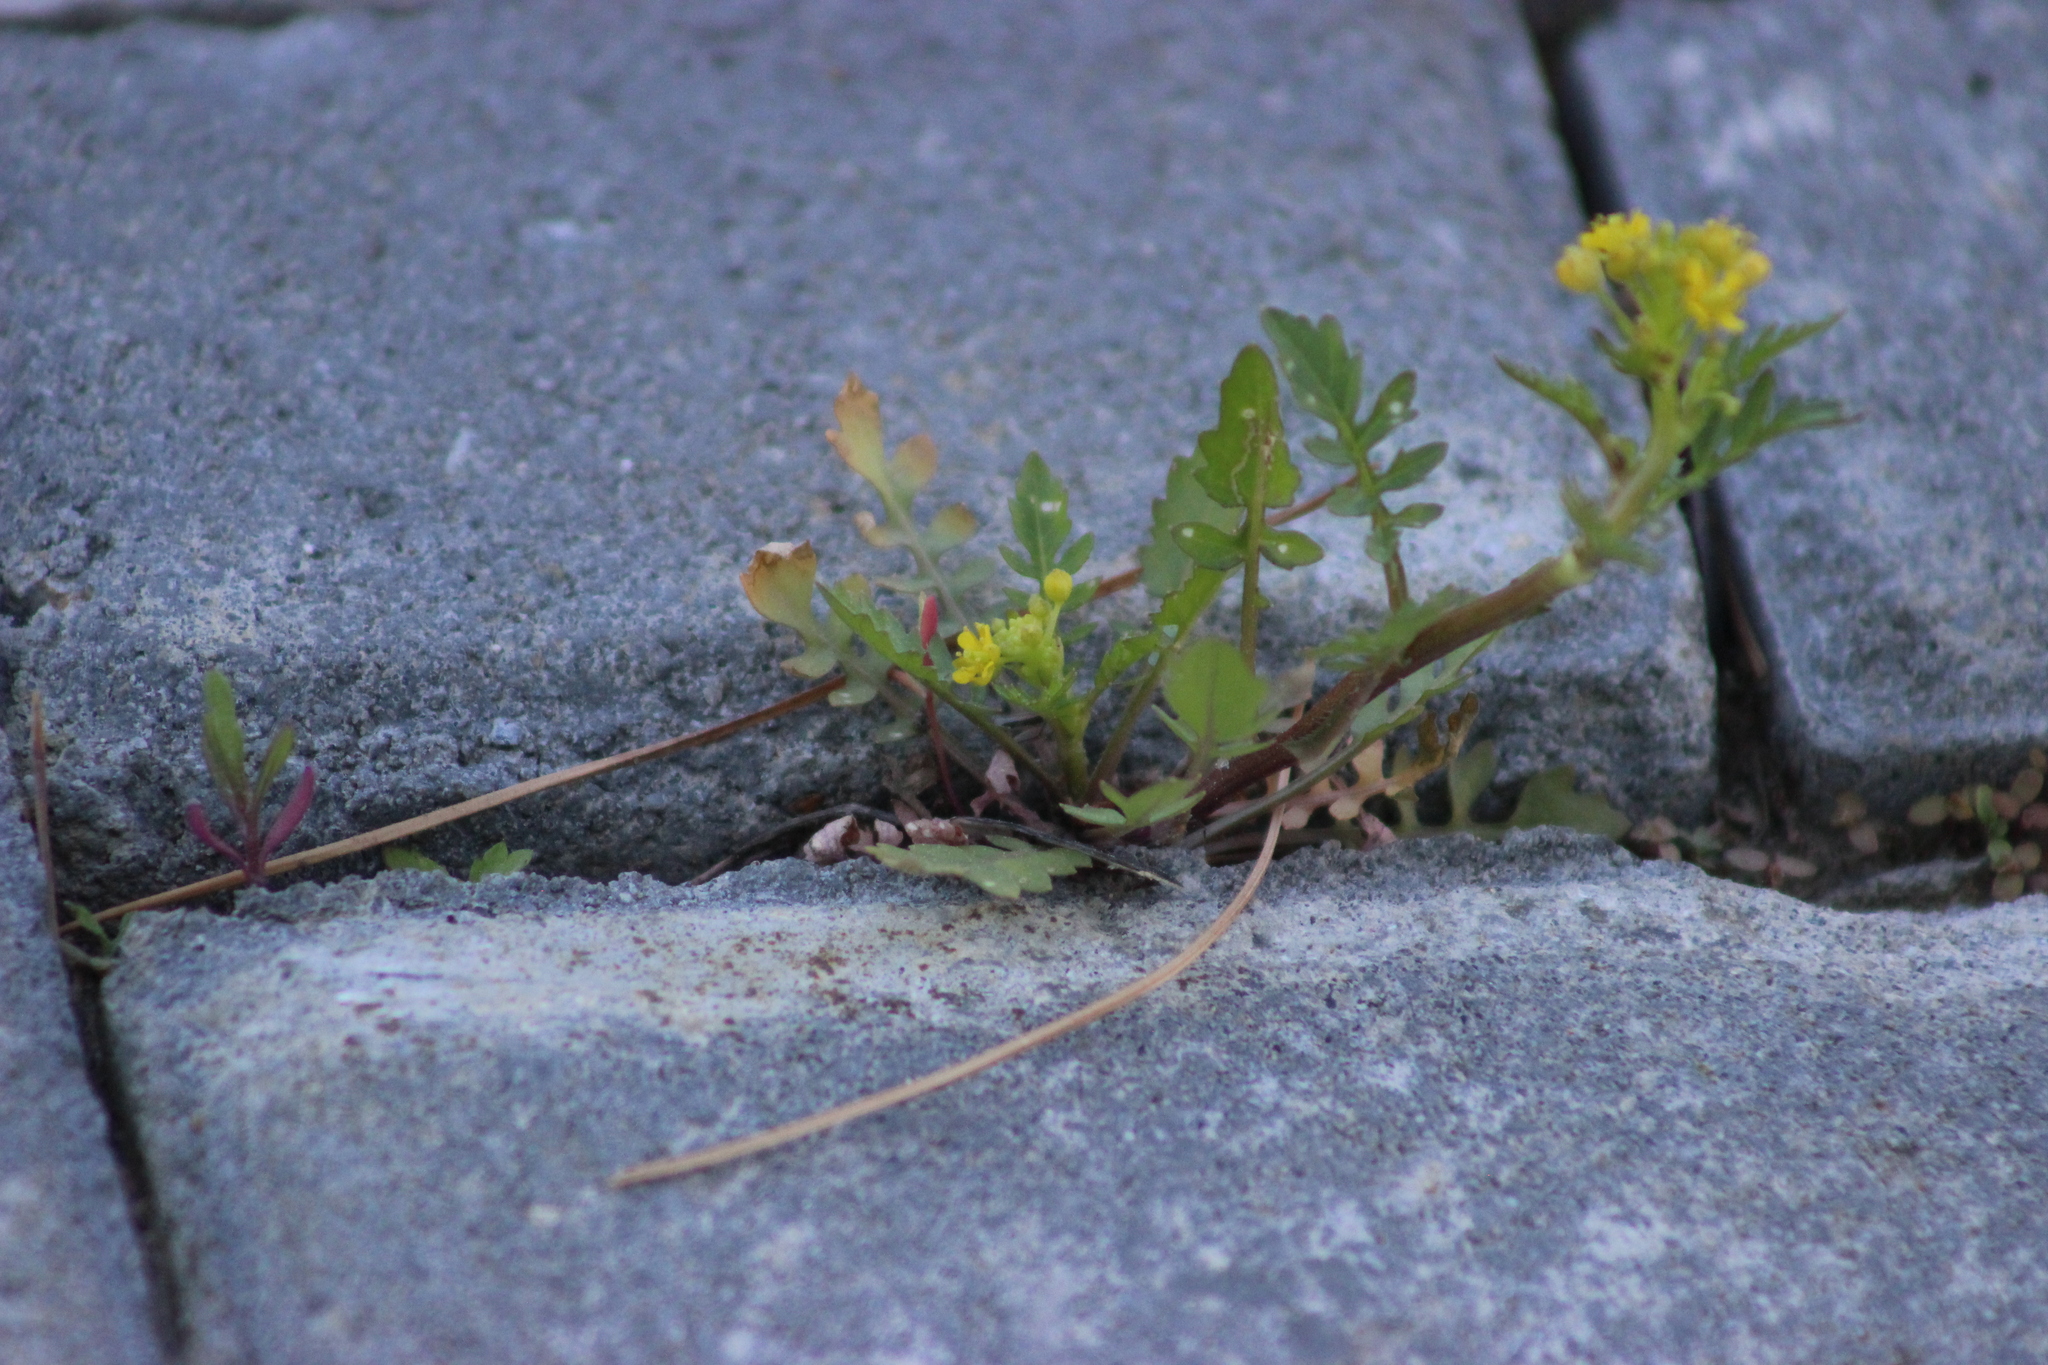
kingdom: Plantae
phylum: Tracheophyta
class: Magnoliopsida
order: Brassicales
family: Brassicaceae
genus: Rorippa
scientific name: Rorippa palustris
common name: Marsh yellow-cress
